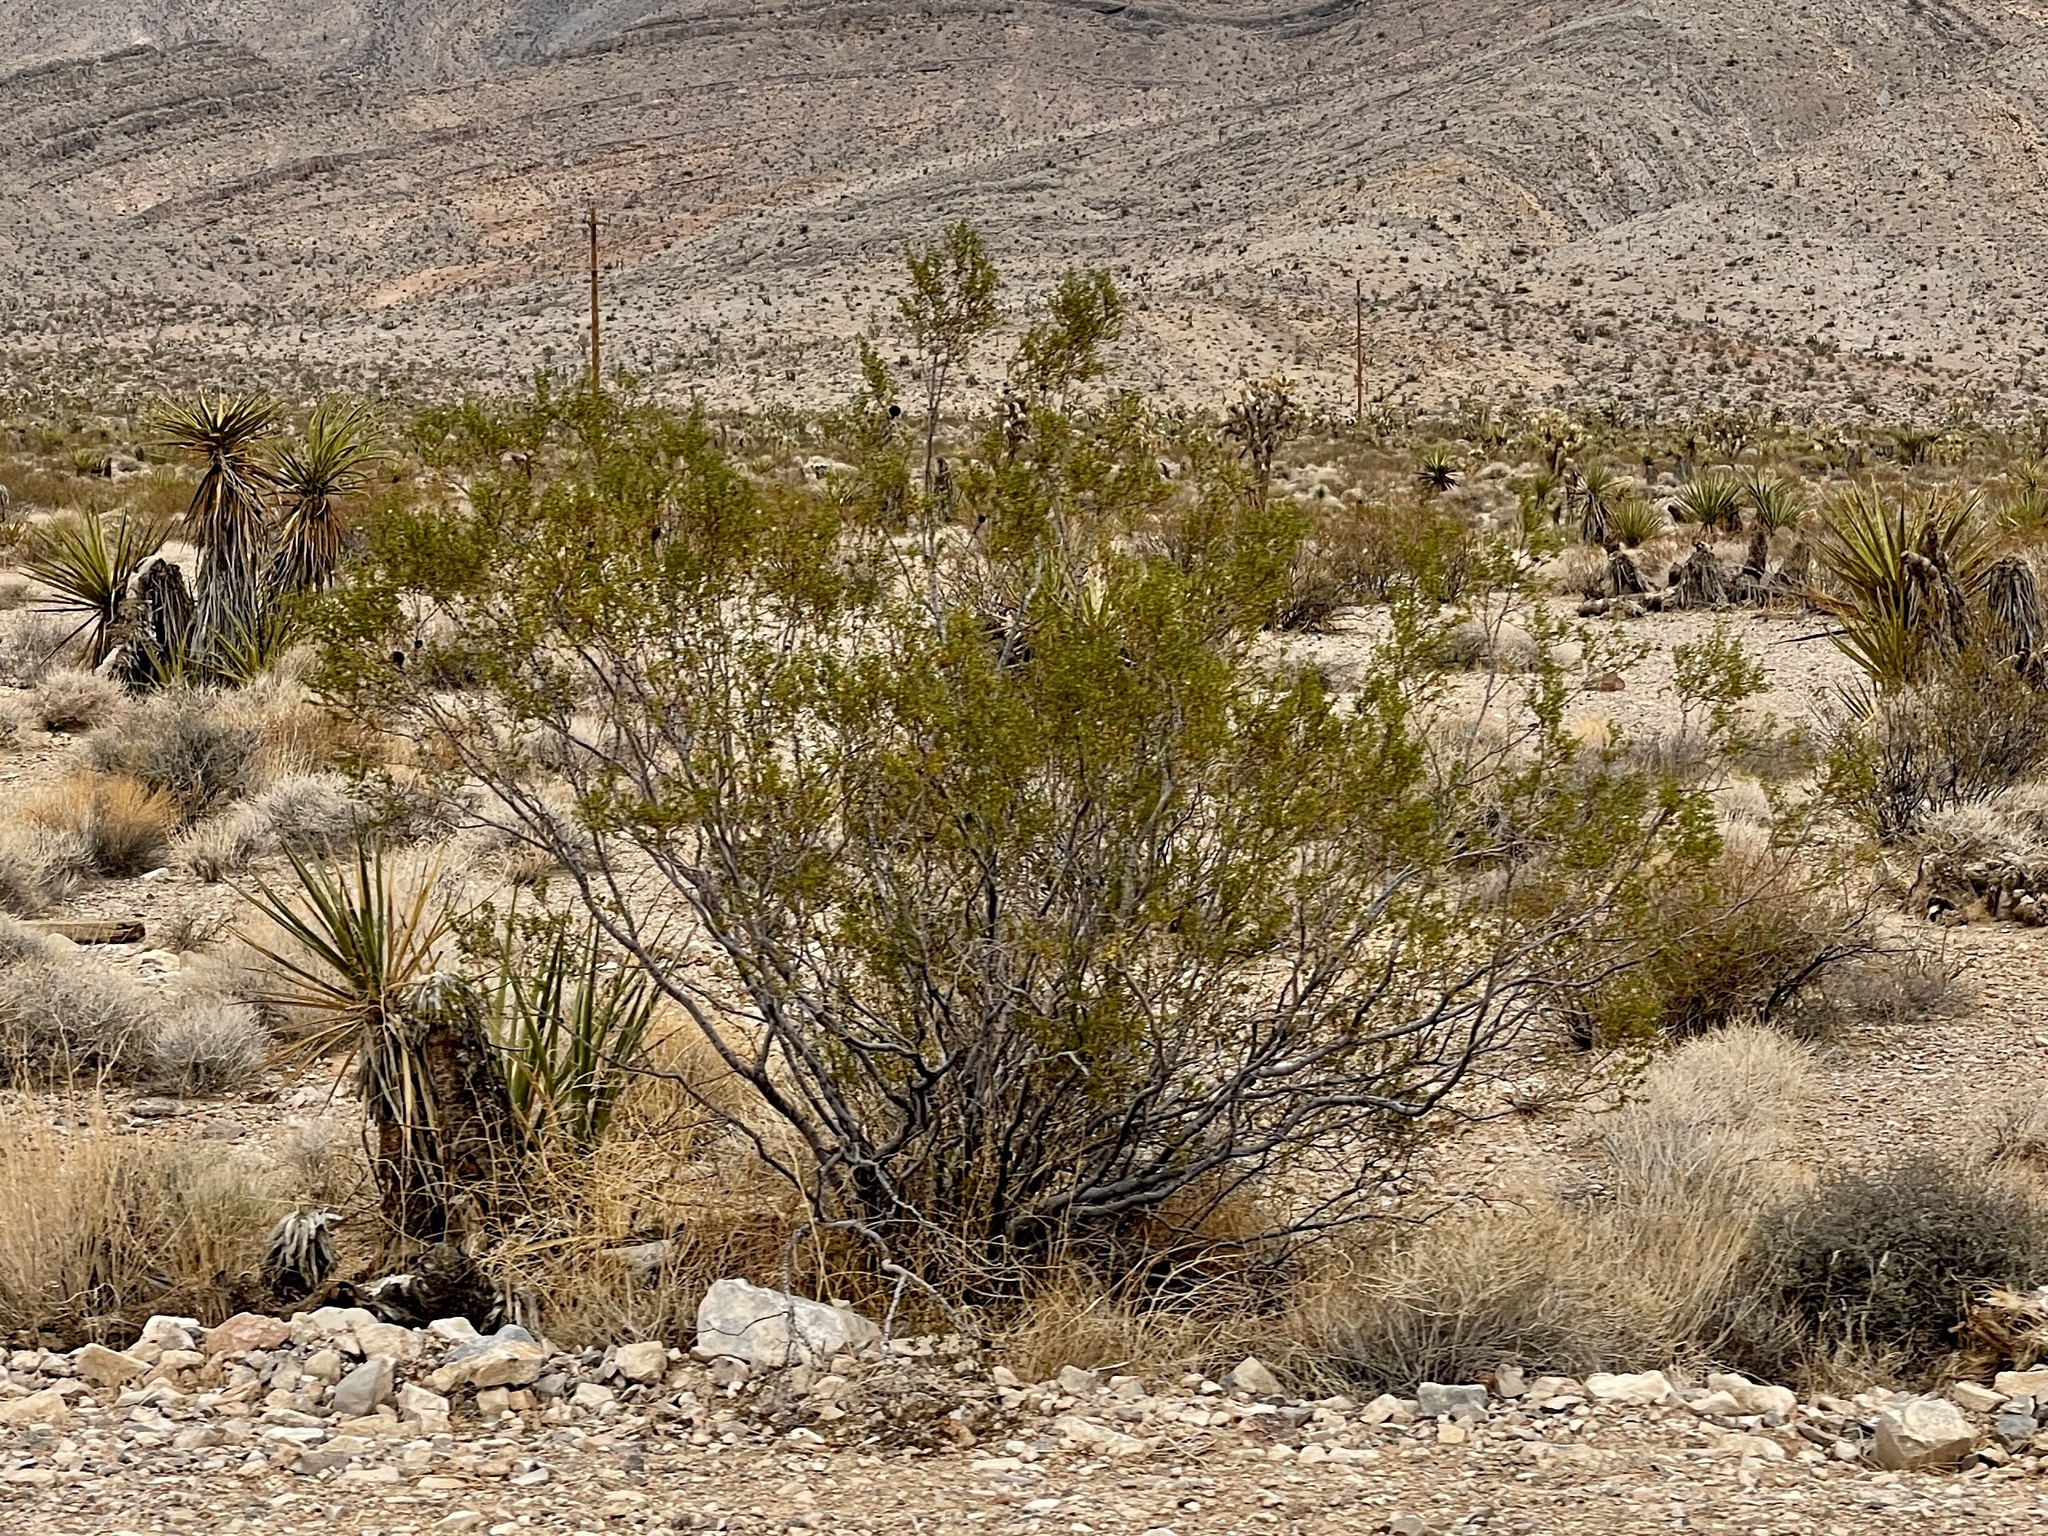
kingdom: Plantae
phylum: Tracheophyta
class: Magnoliopsida
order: Zygophyllales
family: Zygophyllaceae
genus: Larrea
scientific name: Larrea tridentata
